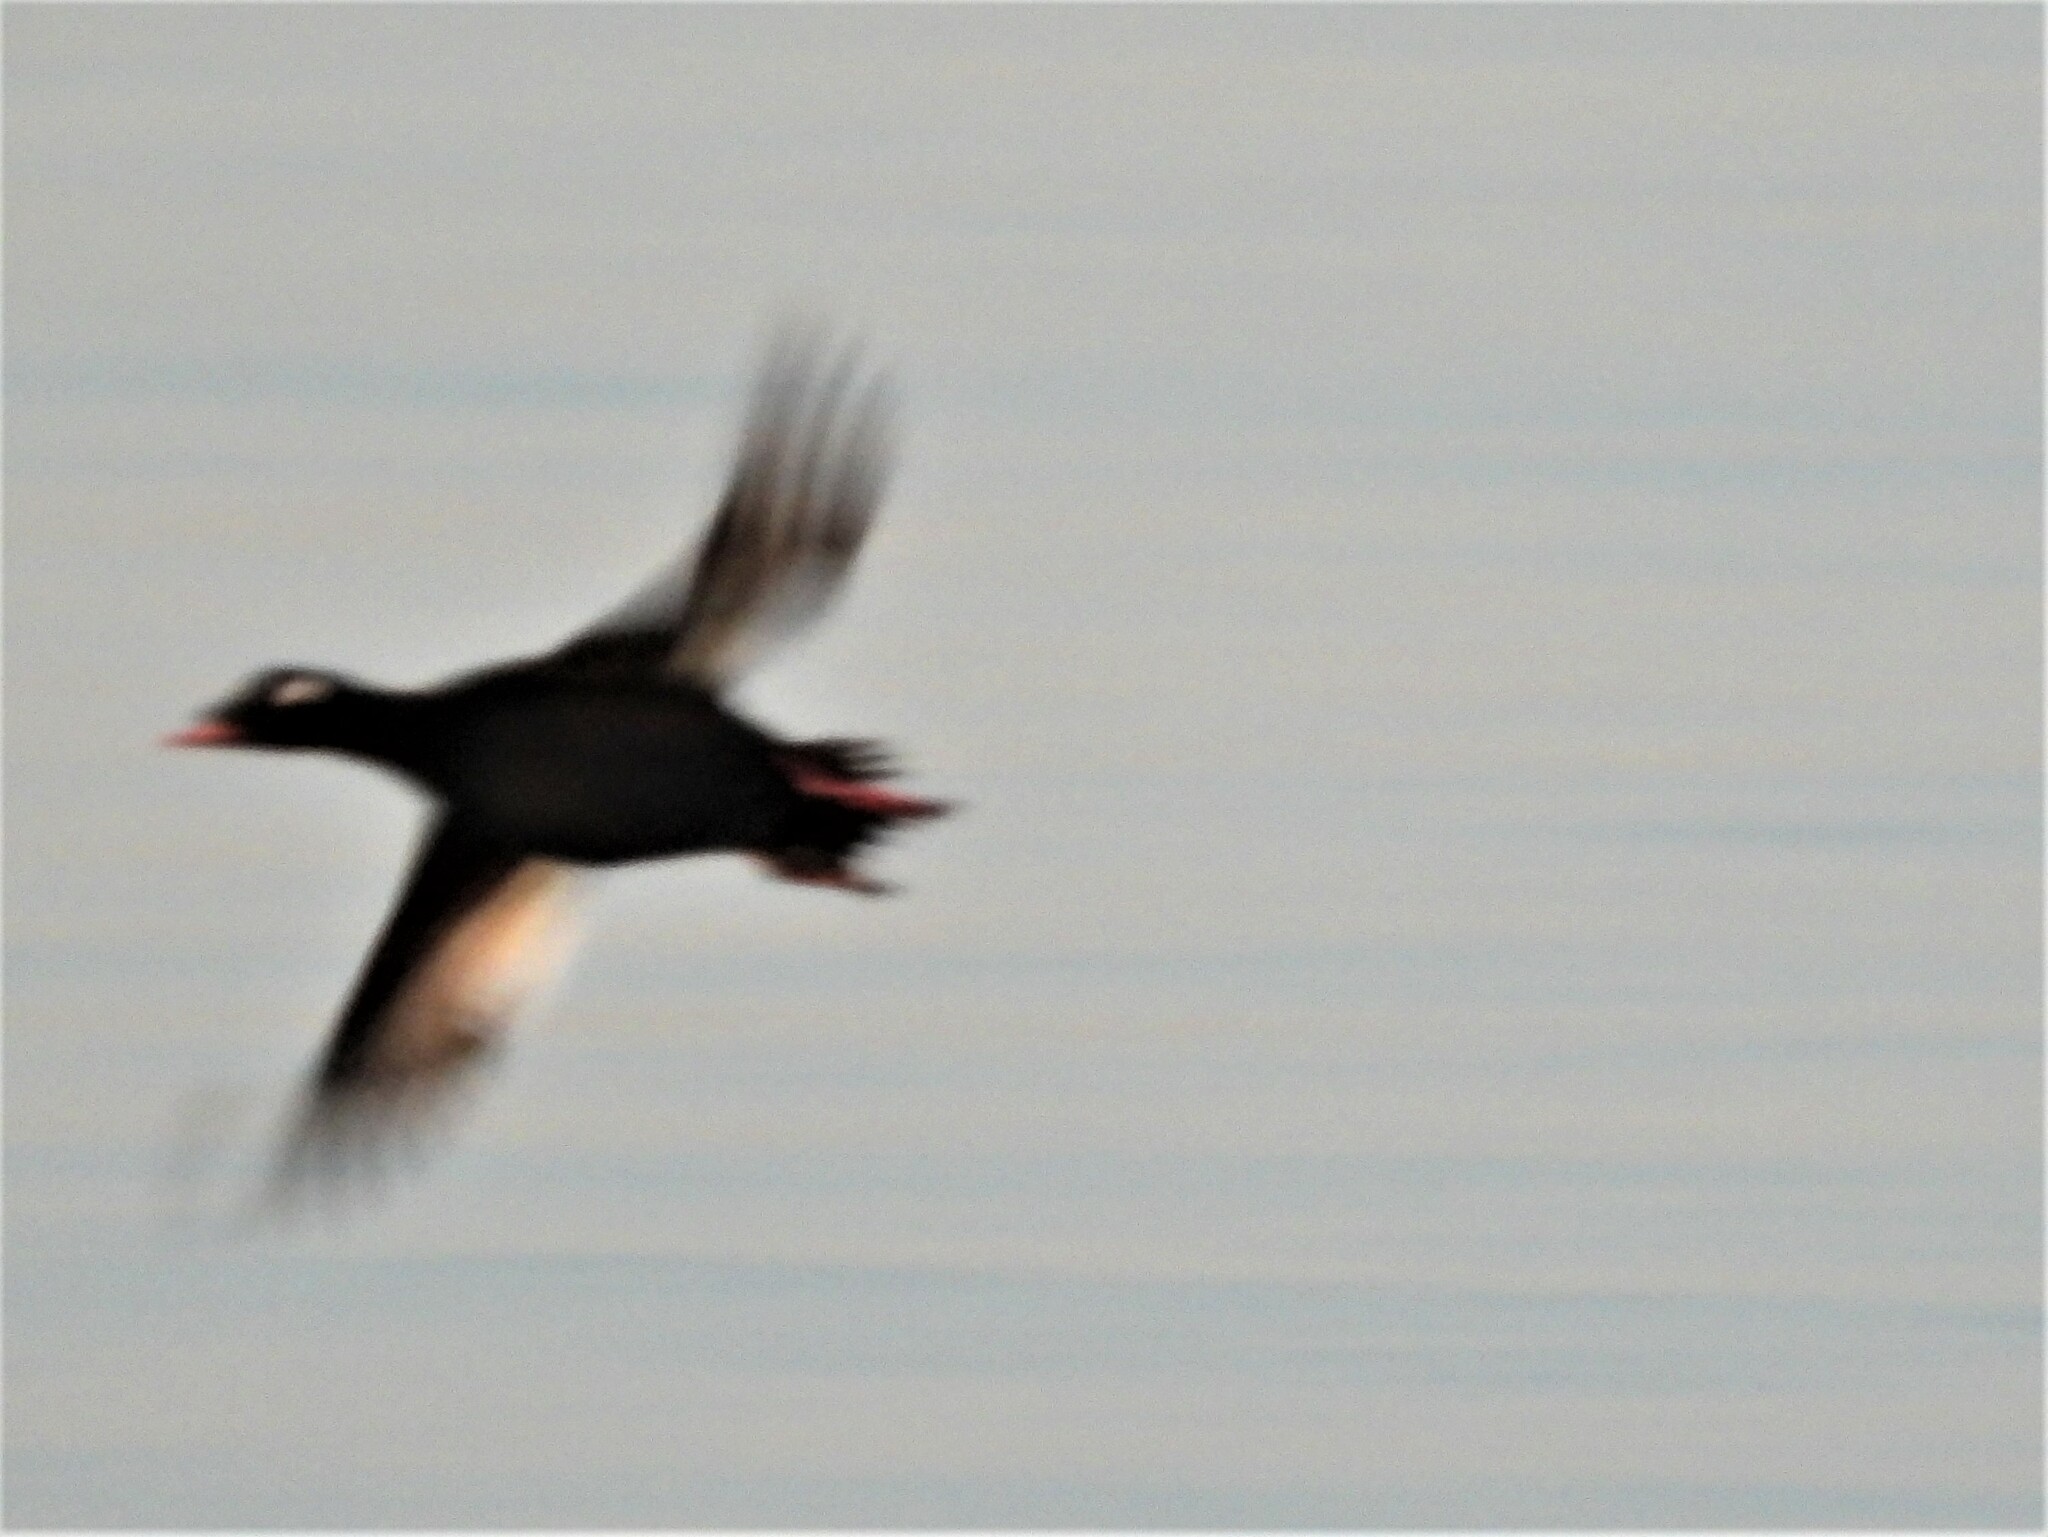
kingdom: Animalia
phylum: Chordata
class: Aves
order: Anseriformes
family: Anatidae
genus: Melanitta
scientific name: Melanitta deglandi
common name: White-winged scoter
